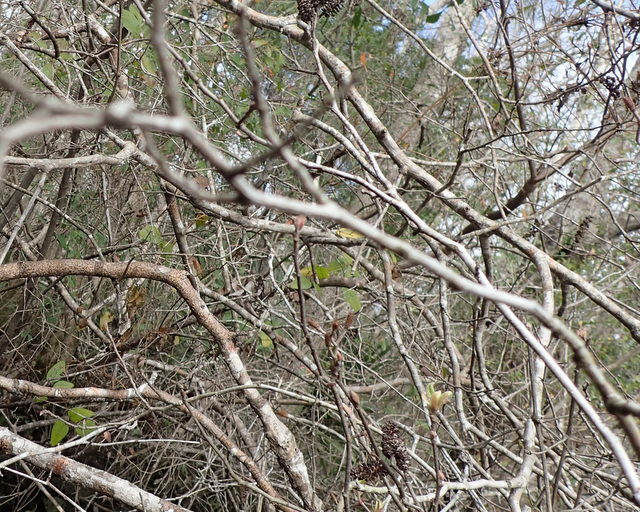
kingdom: Plantae
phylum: Tracheophyta
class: Magnoliopsida
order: Fagales
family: Betulaceae
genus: Alnus
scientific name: Alnus serrulata
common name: Hazel alder
